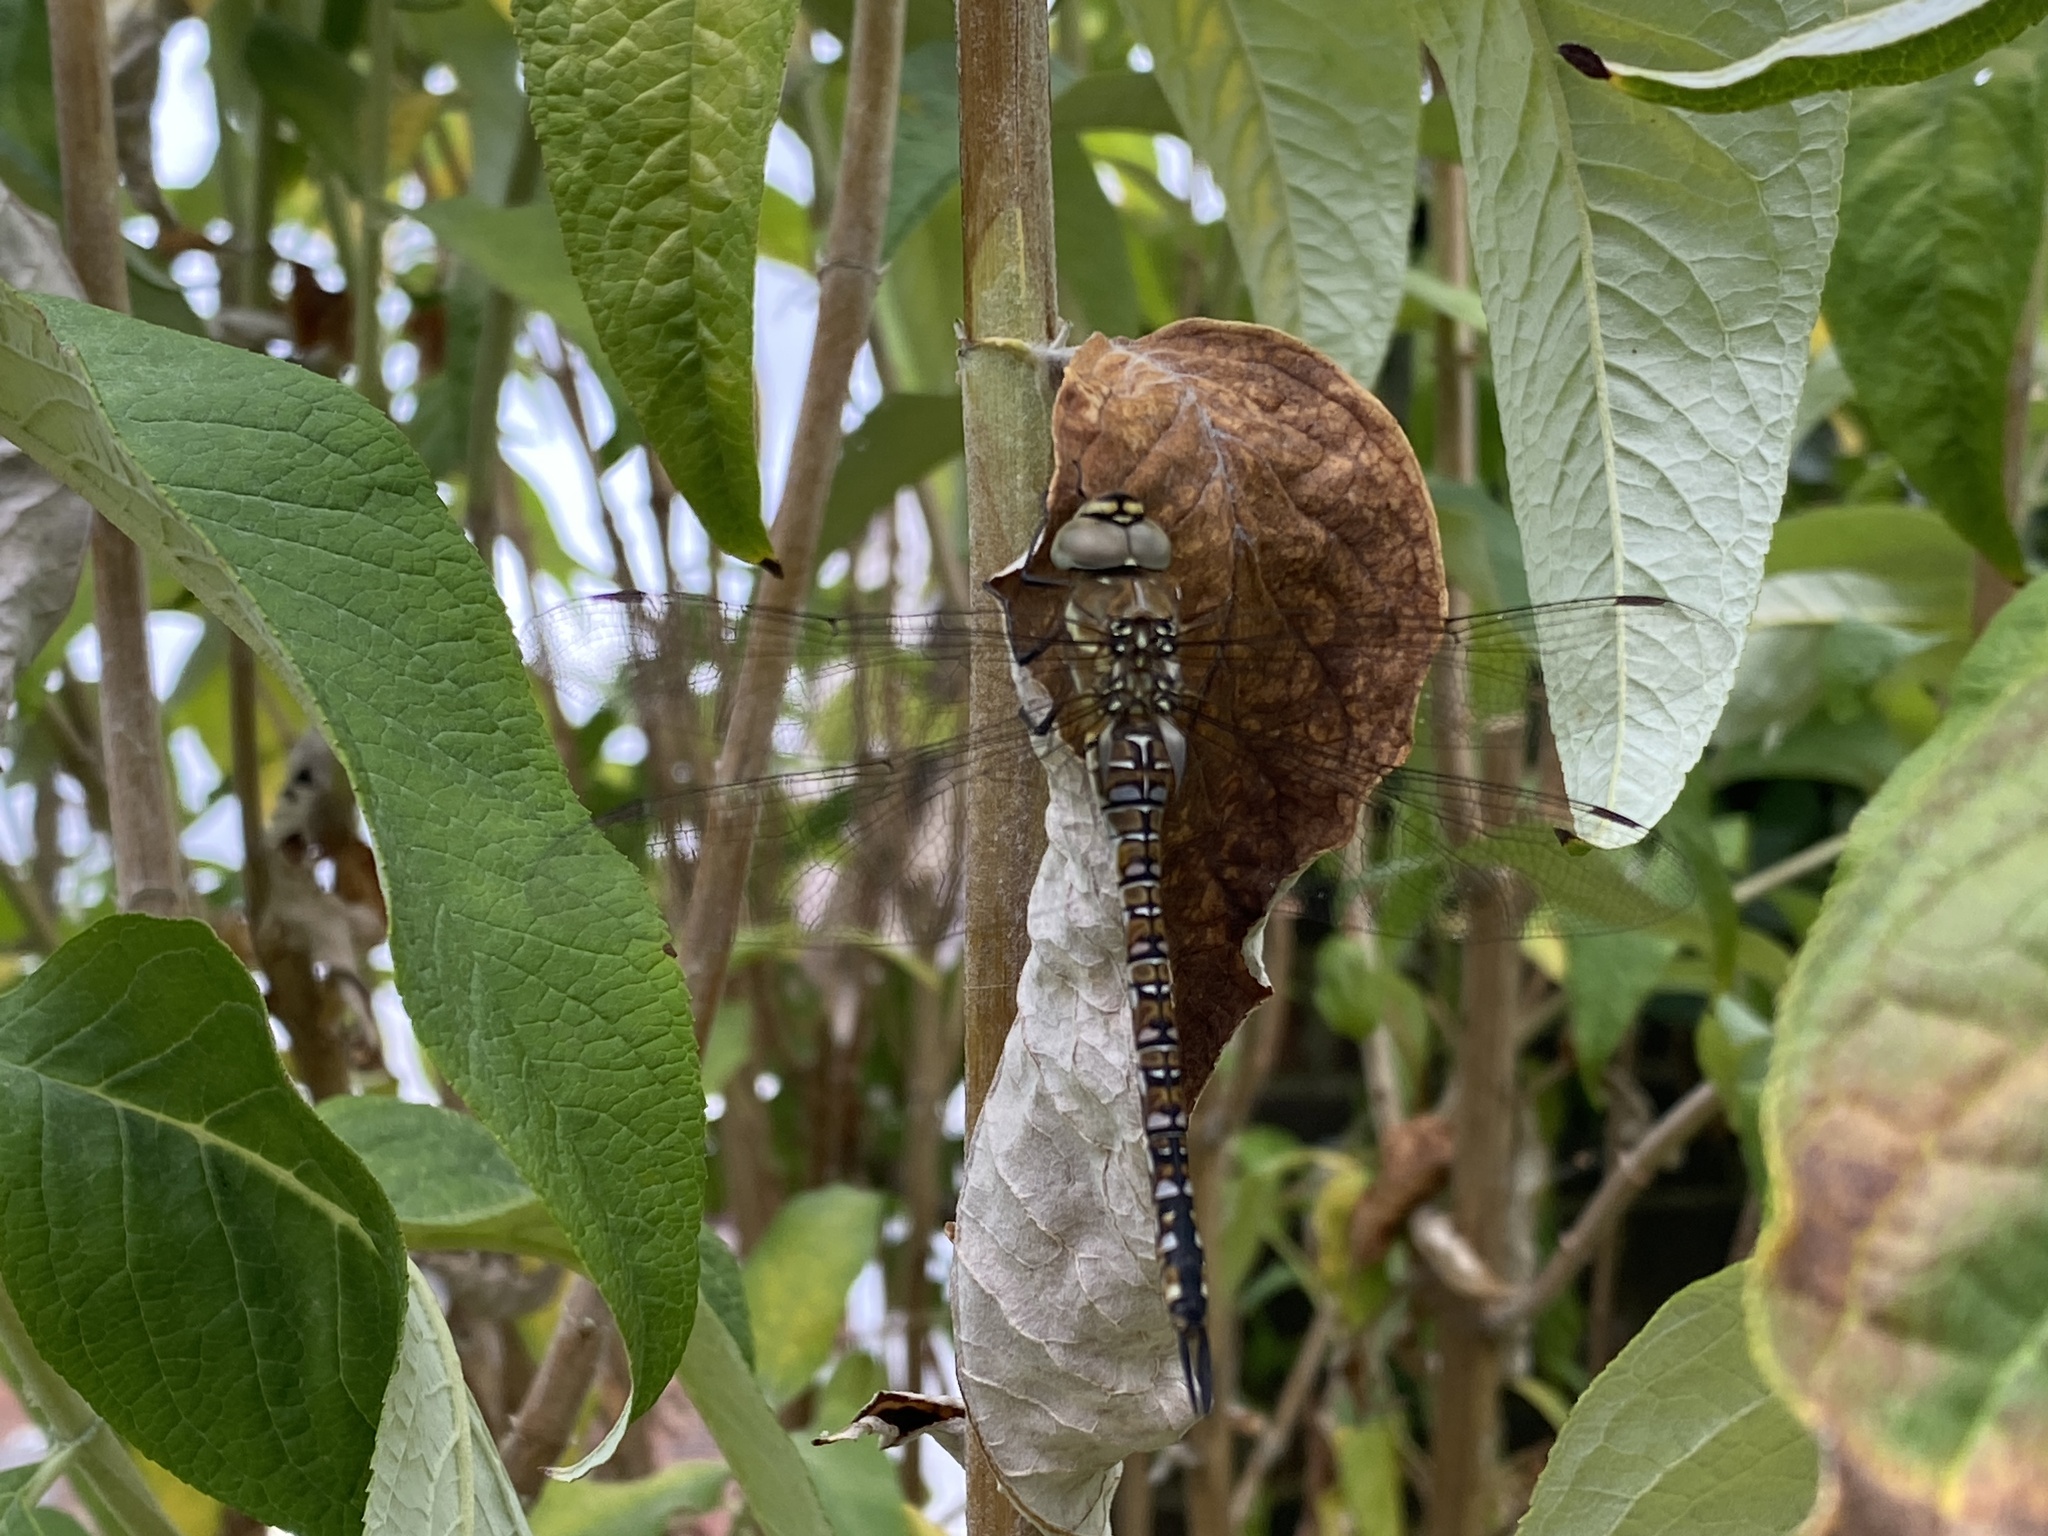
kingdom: Animalia
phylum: Arthropoda
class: Insecta
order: Odonata
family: Aeshnidae
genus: Aeshna
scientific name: Aeshna mixta
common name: Migrant hawker
